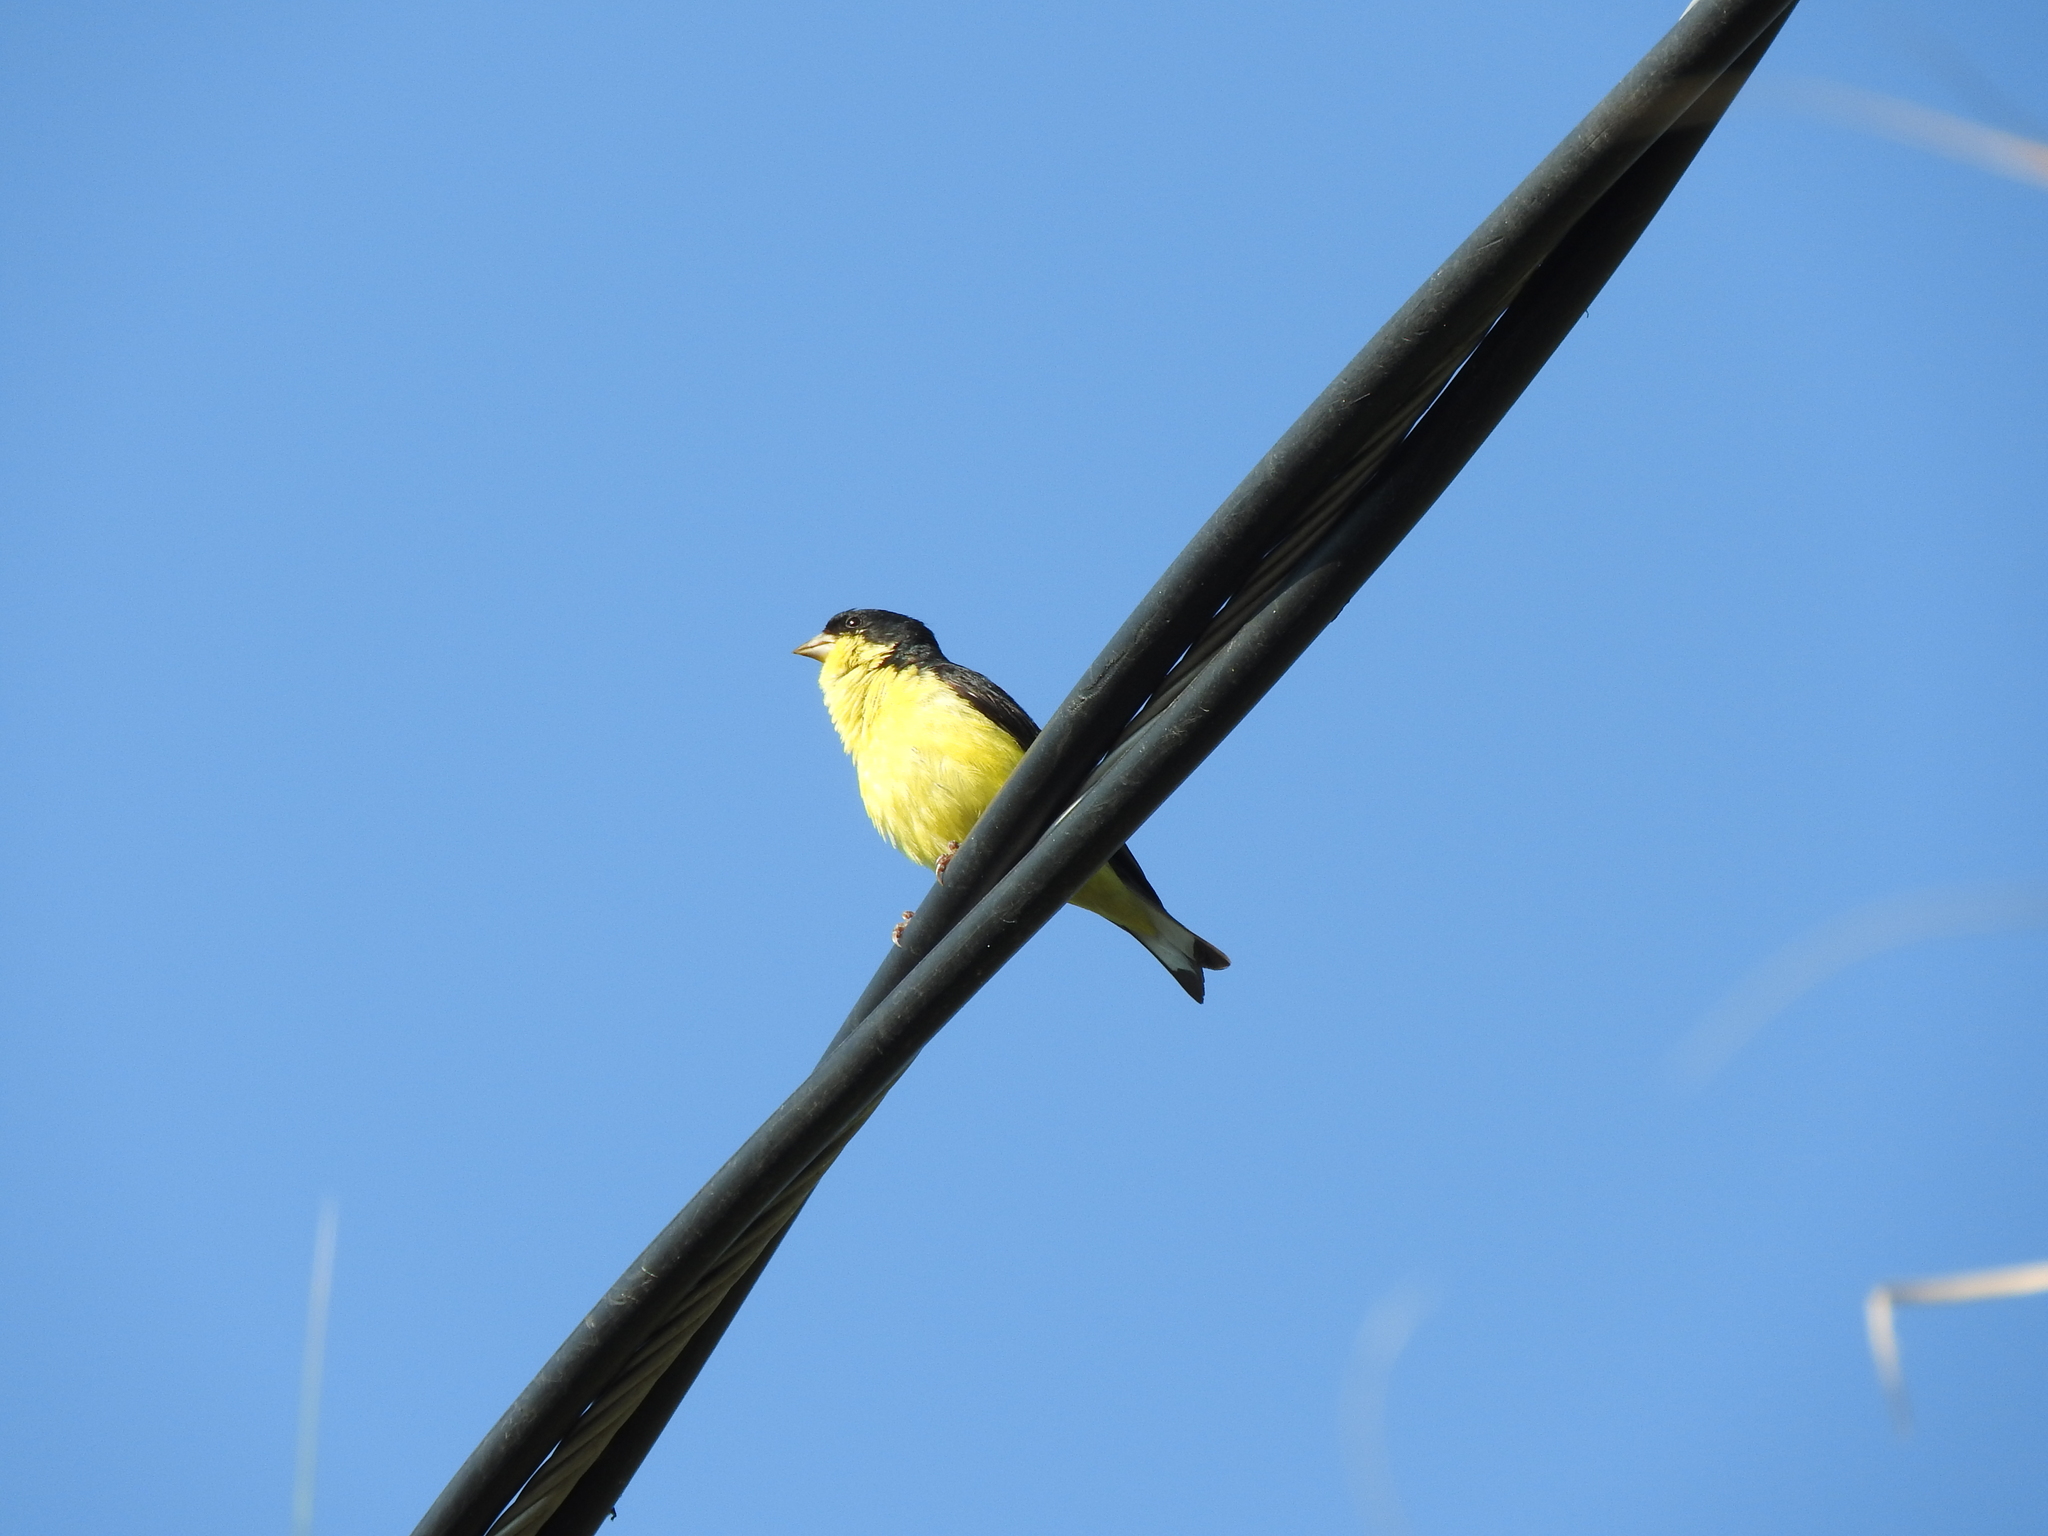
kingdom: Animalia
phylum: Chordata
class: Aves
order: Passeriformes
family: Fringillidae
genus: Spinus
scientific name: Spinus psaltria
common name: Lesser goldfinch
